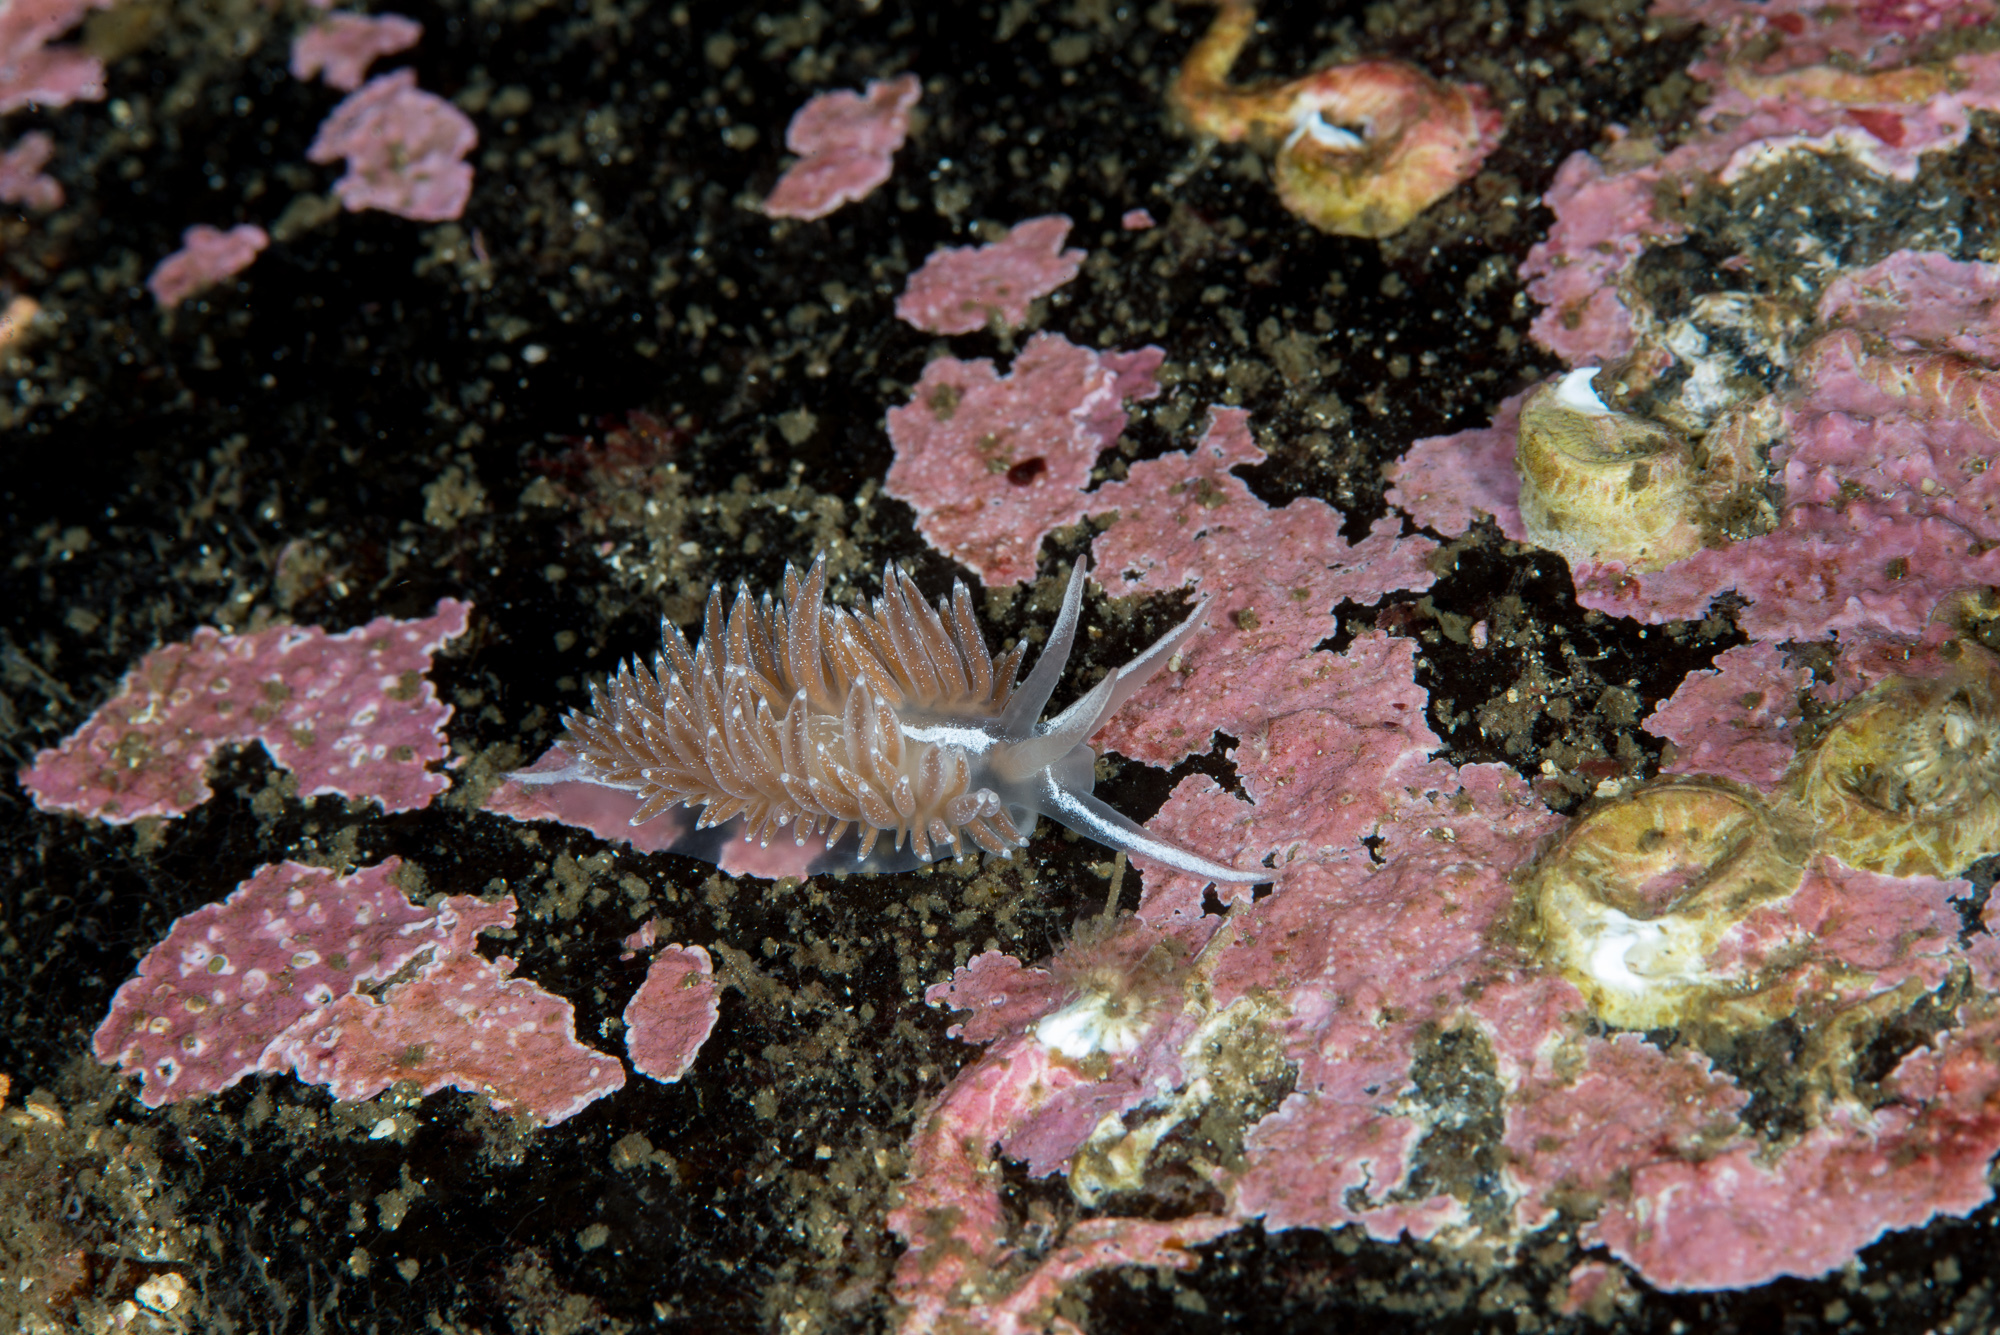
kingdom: Animalia
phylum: Mollusca
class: Gastropoda
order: Nudibranchia
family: Coryphellidae
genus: Coryphella
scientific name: Coryphella orjani
